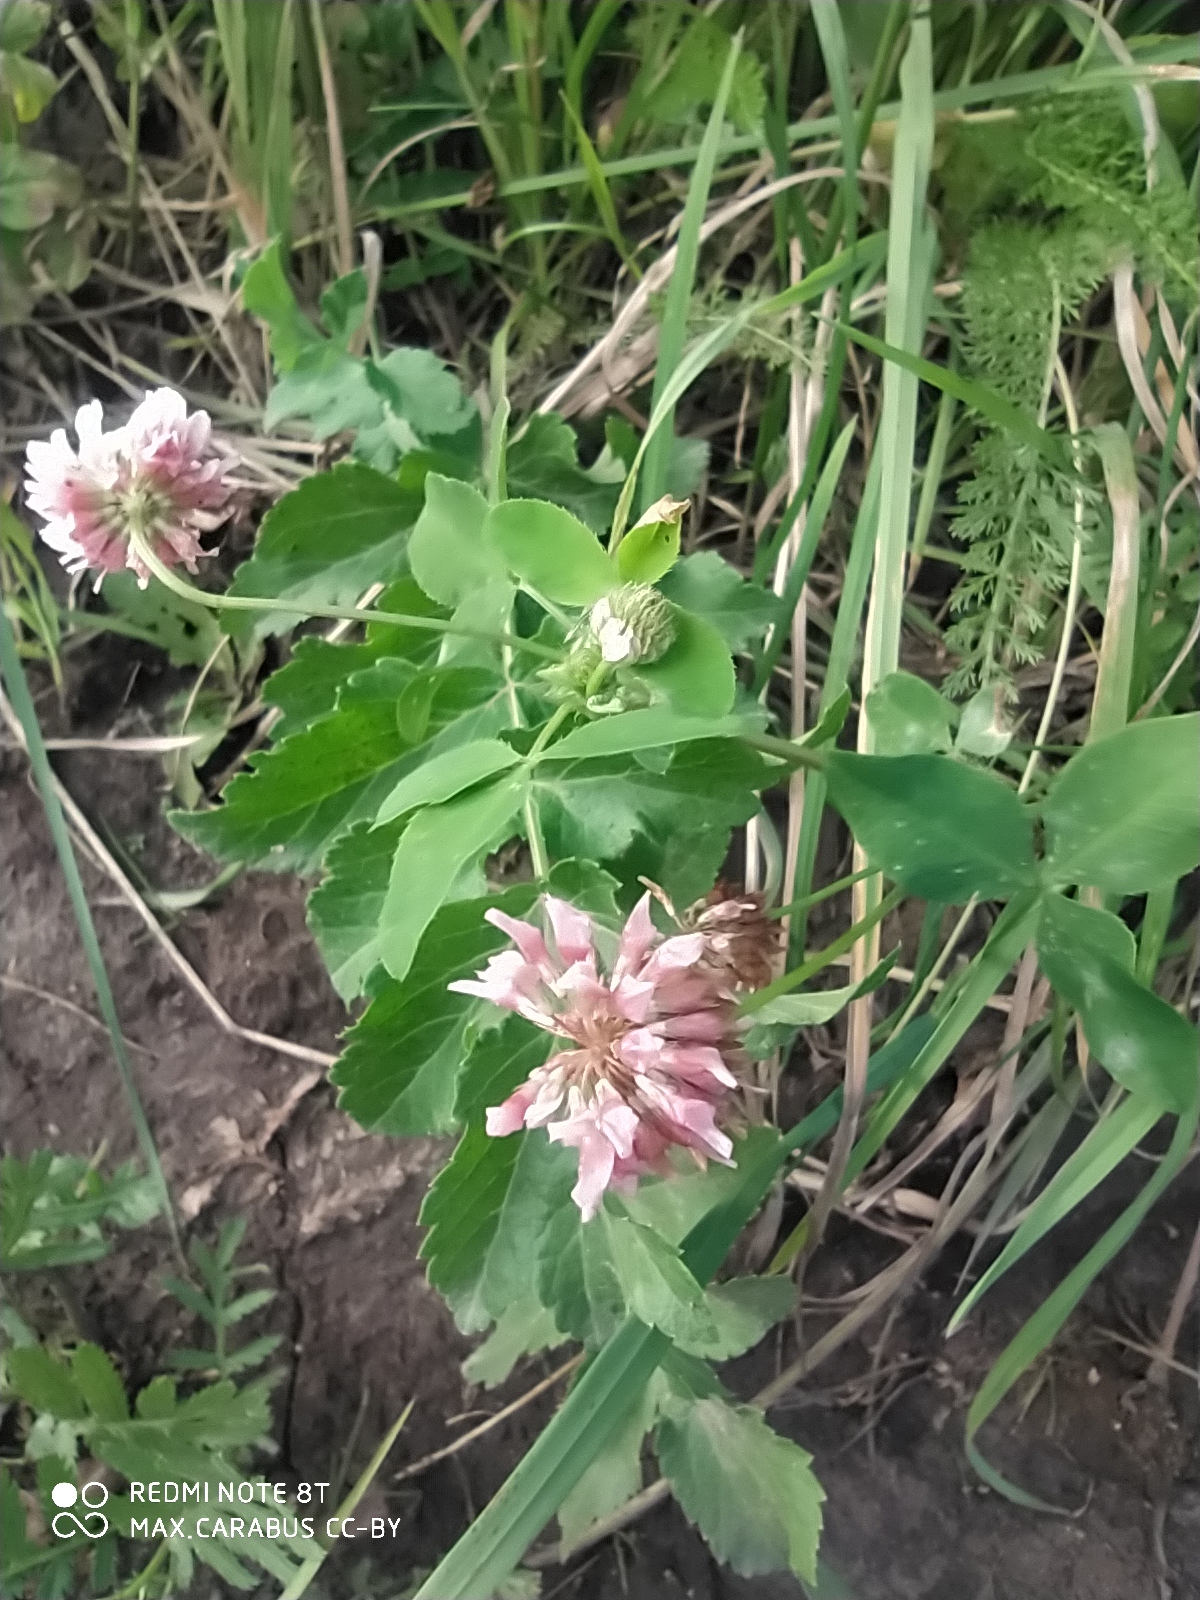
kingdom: Plantae
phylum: Tracheophyta
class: Magnoliopsida
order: Fabales
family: Fabaceae
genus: Trifolium
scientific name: Trifolium hybridum
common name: Alsike clover
